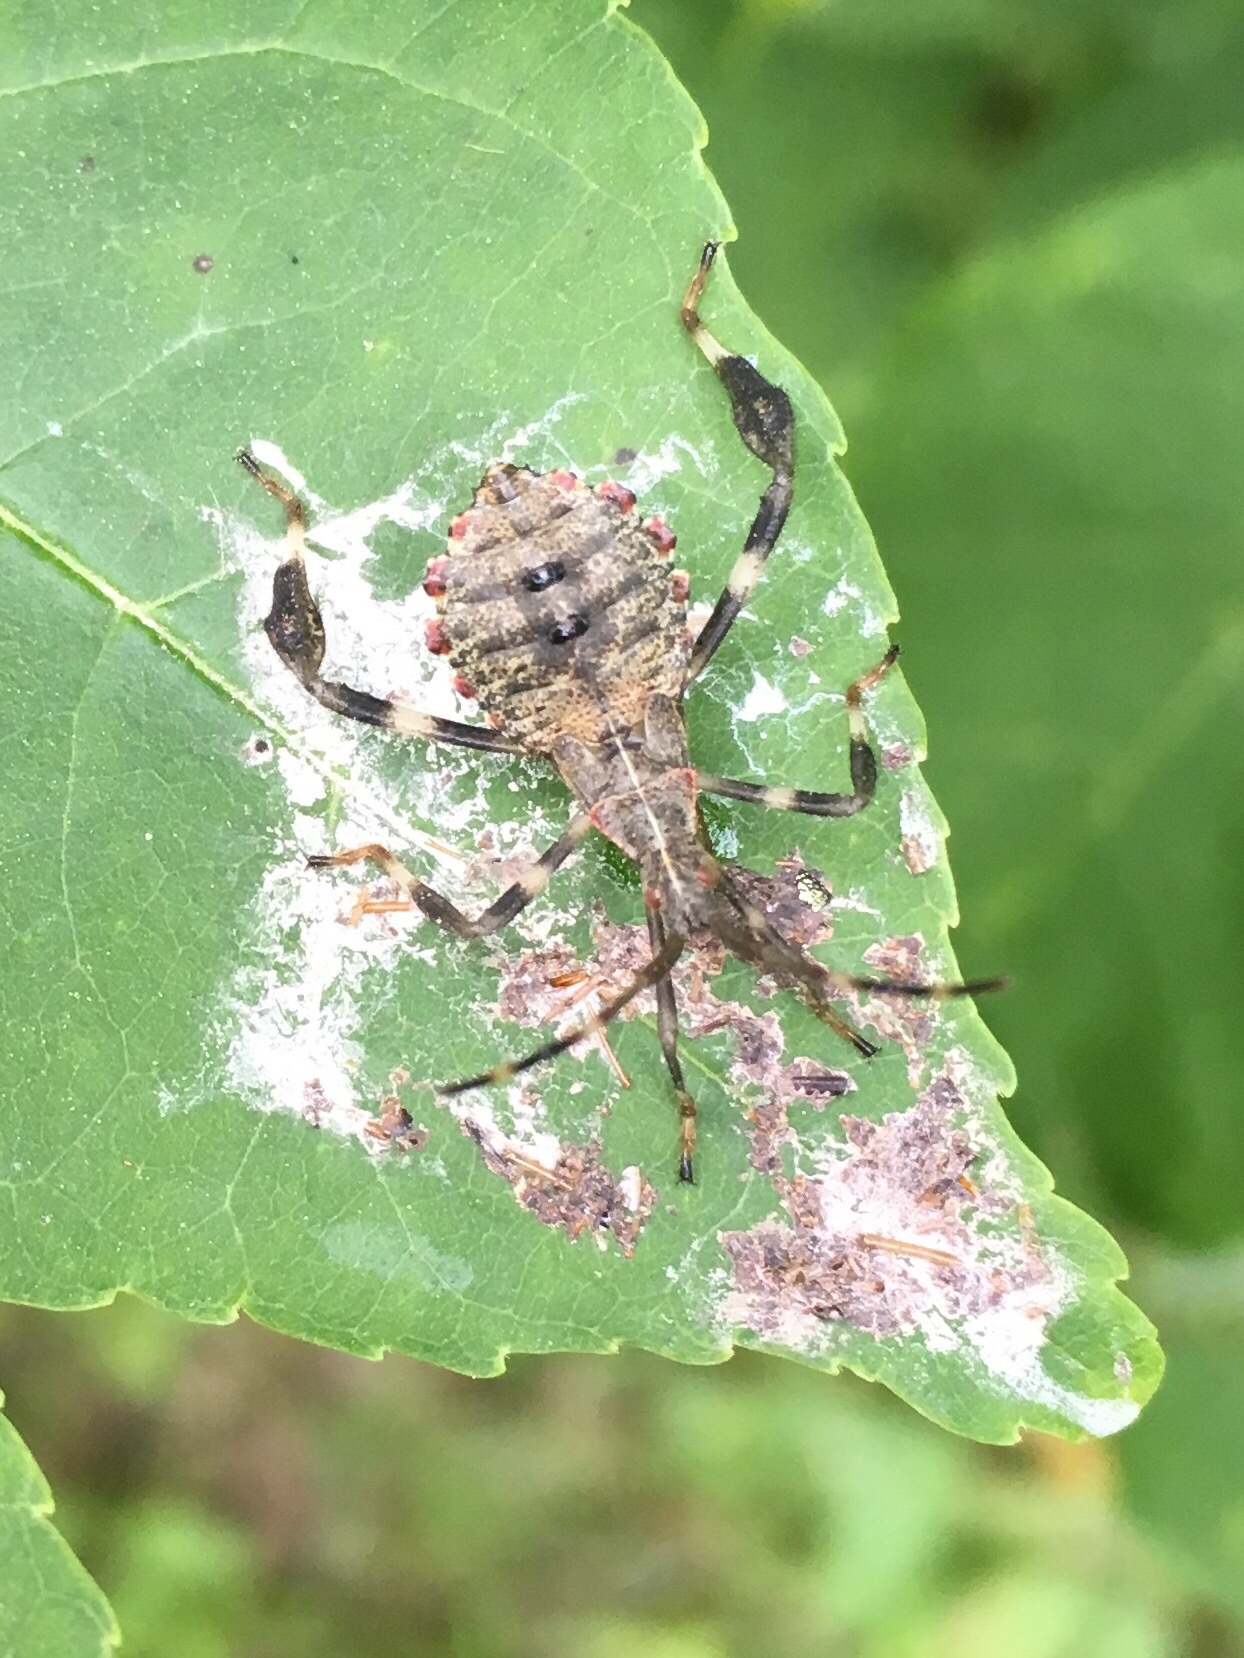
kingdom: Animalia
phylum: Arthropoda
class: Insecta
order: Hemiptera
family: Coreidae
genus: Acanthocephala
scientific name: Acanthocephala terminalis
